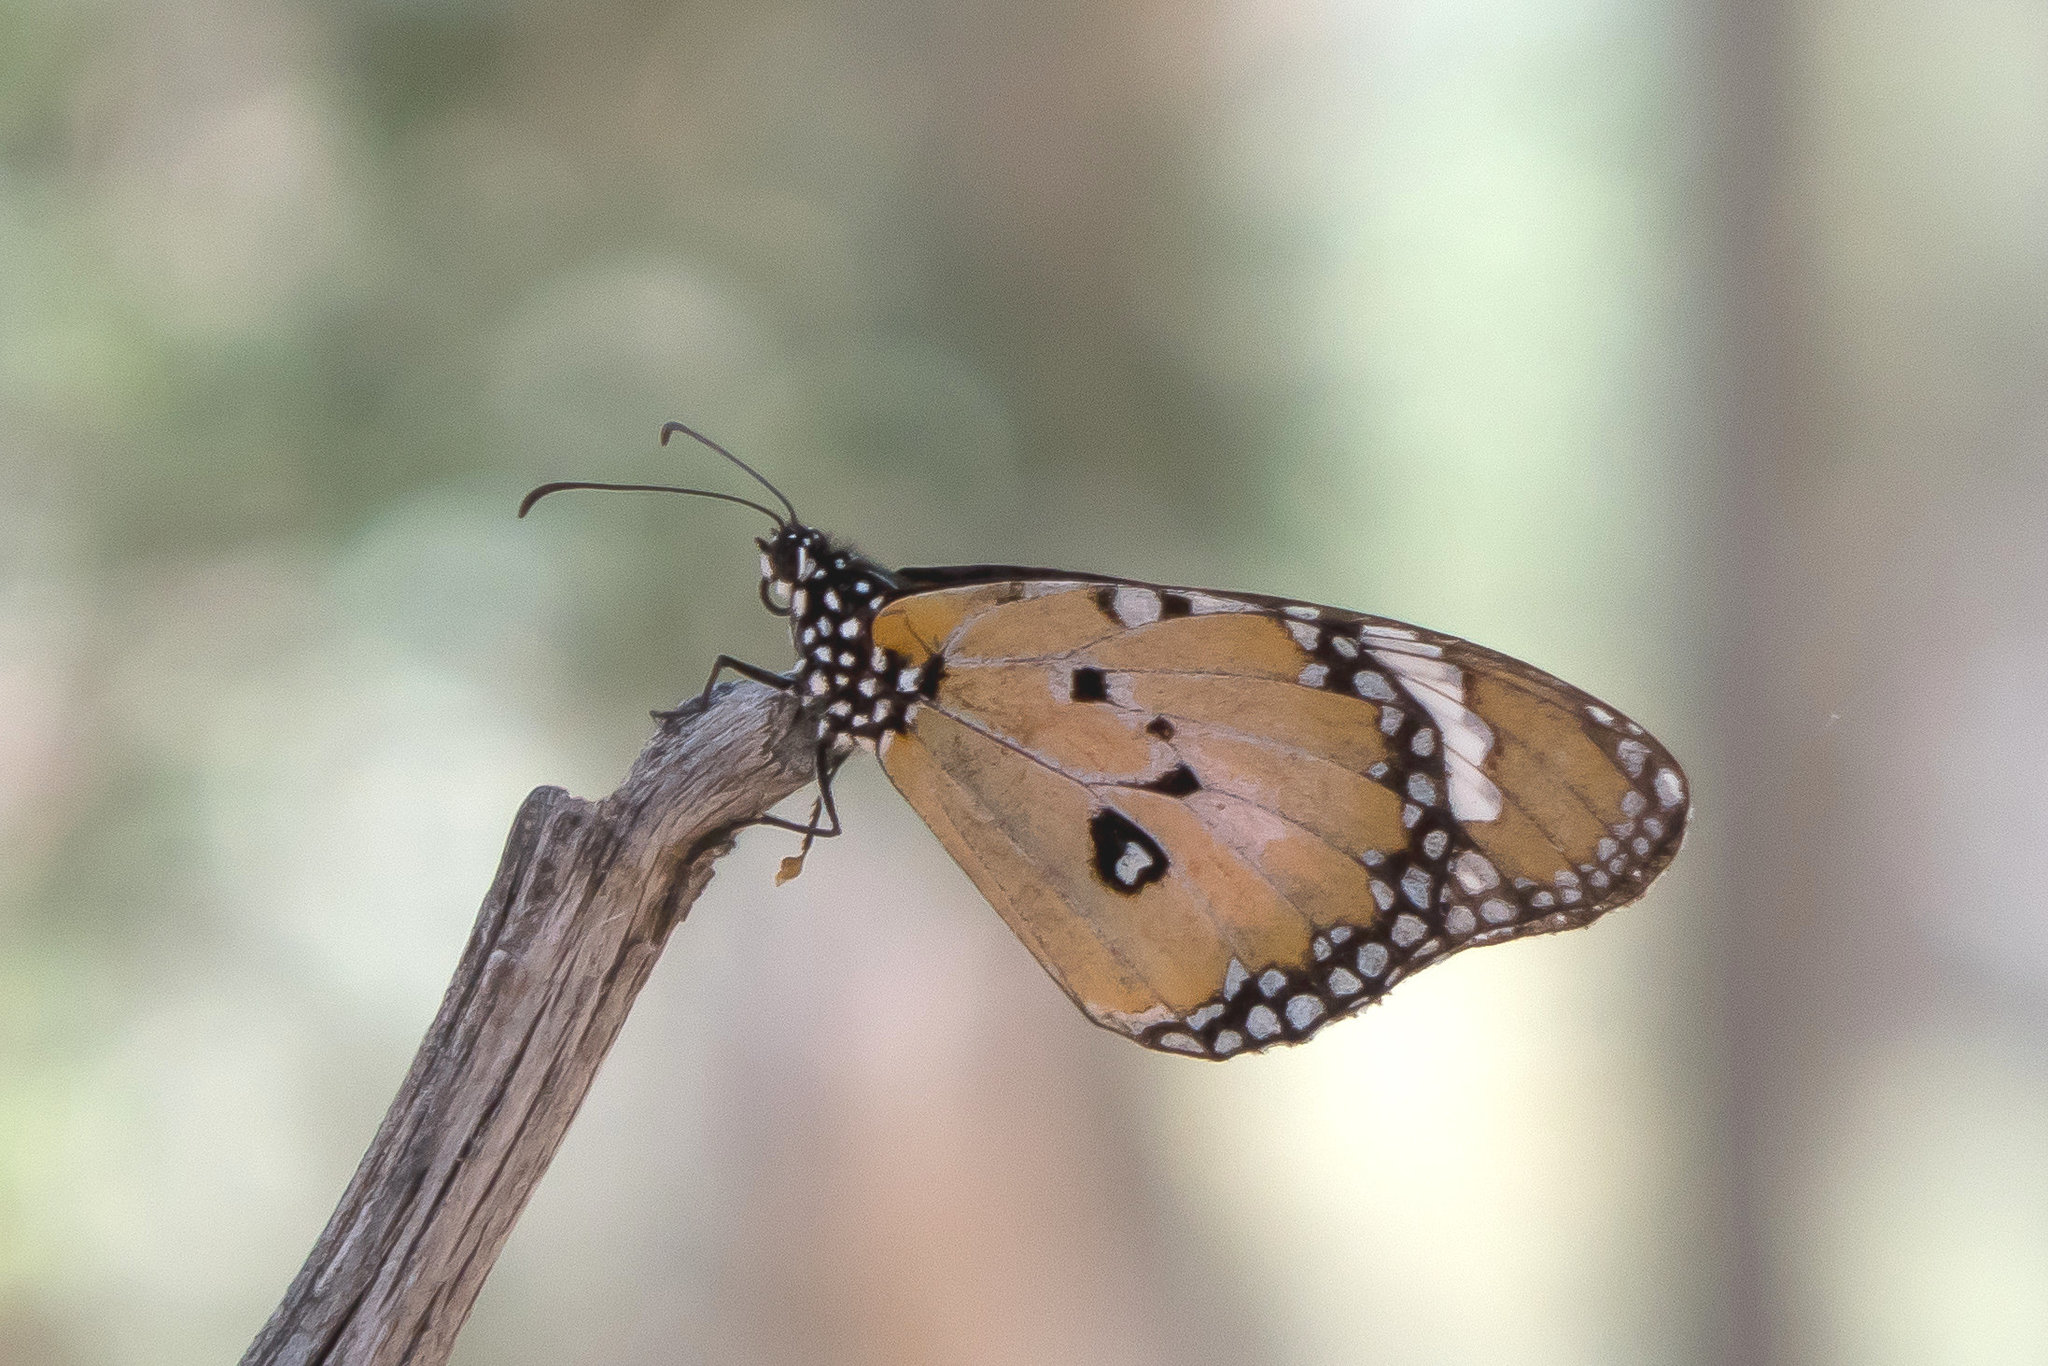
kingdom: Animalia
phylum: Arthropoda
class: Insecta
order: Lepidoptera
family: Nymphalidae
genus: Danaus
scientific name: Danaus chrysippus
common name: Plain tiger
